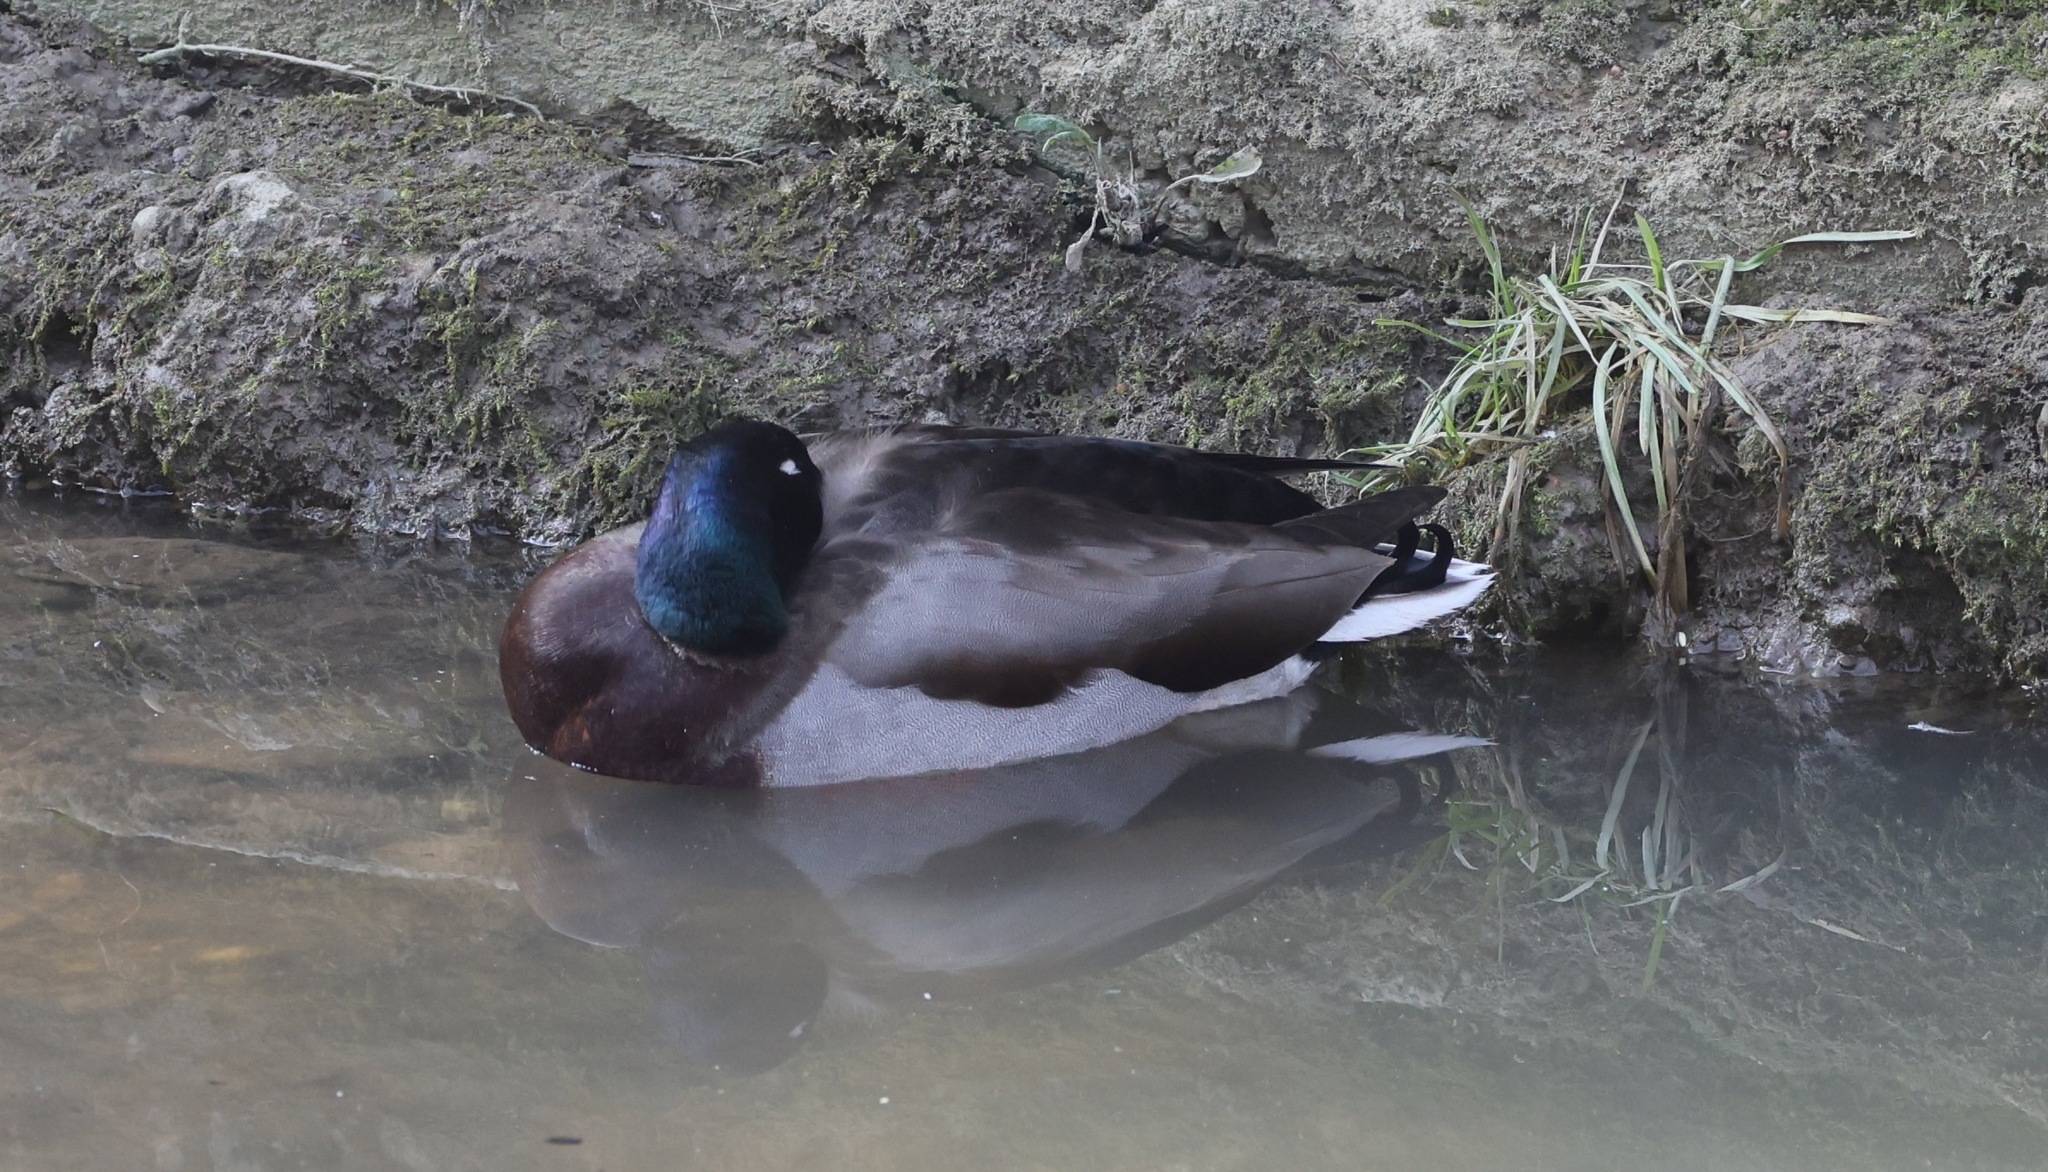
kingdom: Animalia
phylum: Chordata
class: Aves
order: Anseriformes
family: Anatidae
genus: Anas
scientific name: Anas platyrhynchos
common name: Mallard
